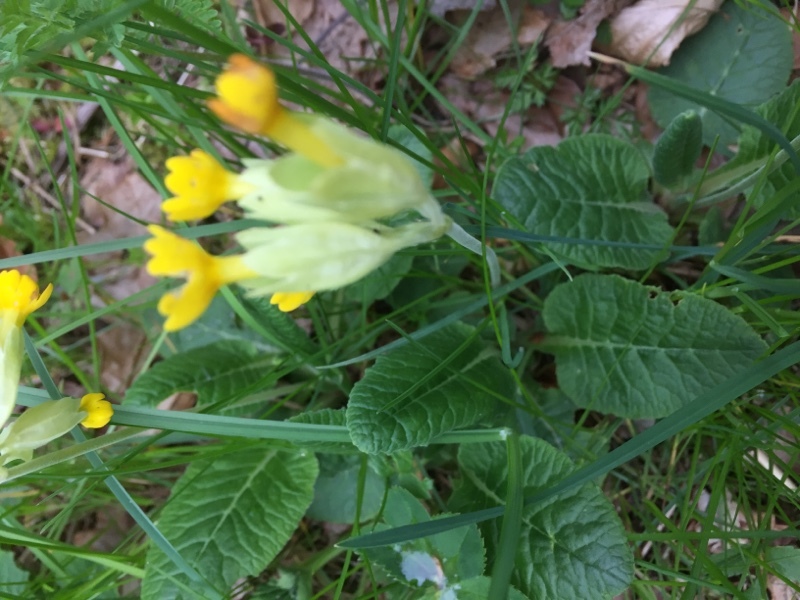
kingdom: Plantae
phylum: Tracheophyta
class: Magnoliopsida
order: Ericales
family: Primulaceae
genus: Primula
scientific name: Primula veris
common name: Cowslip
